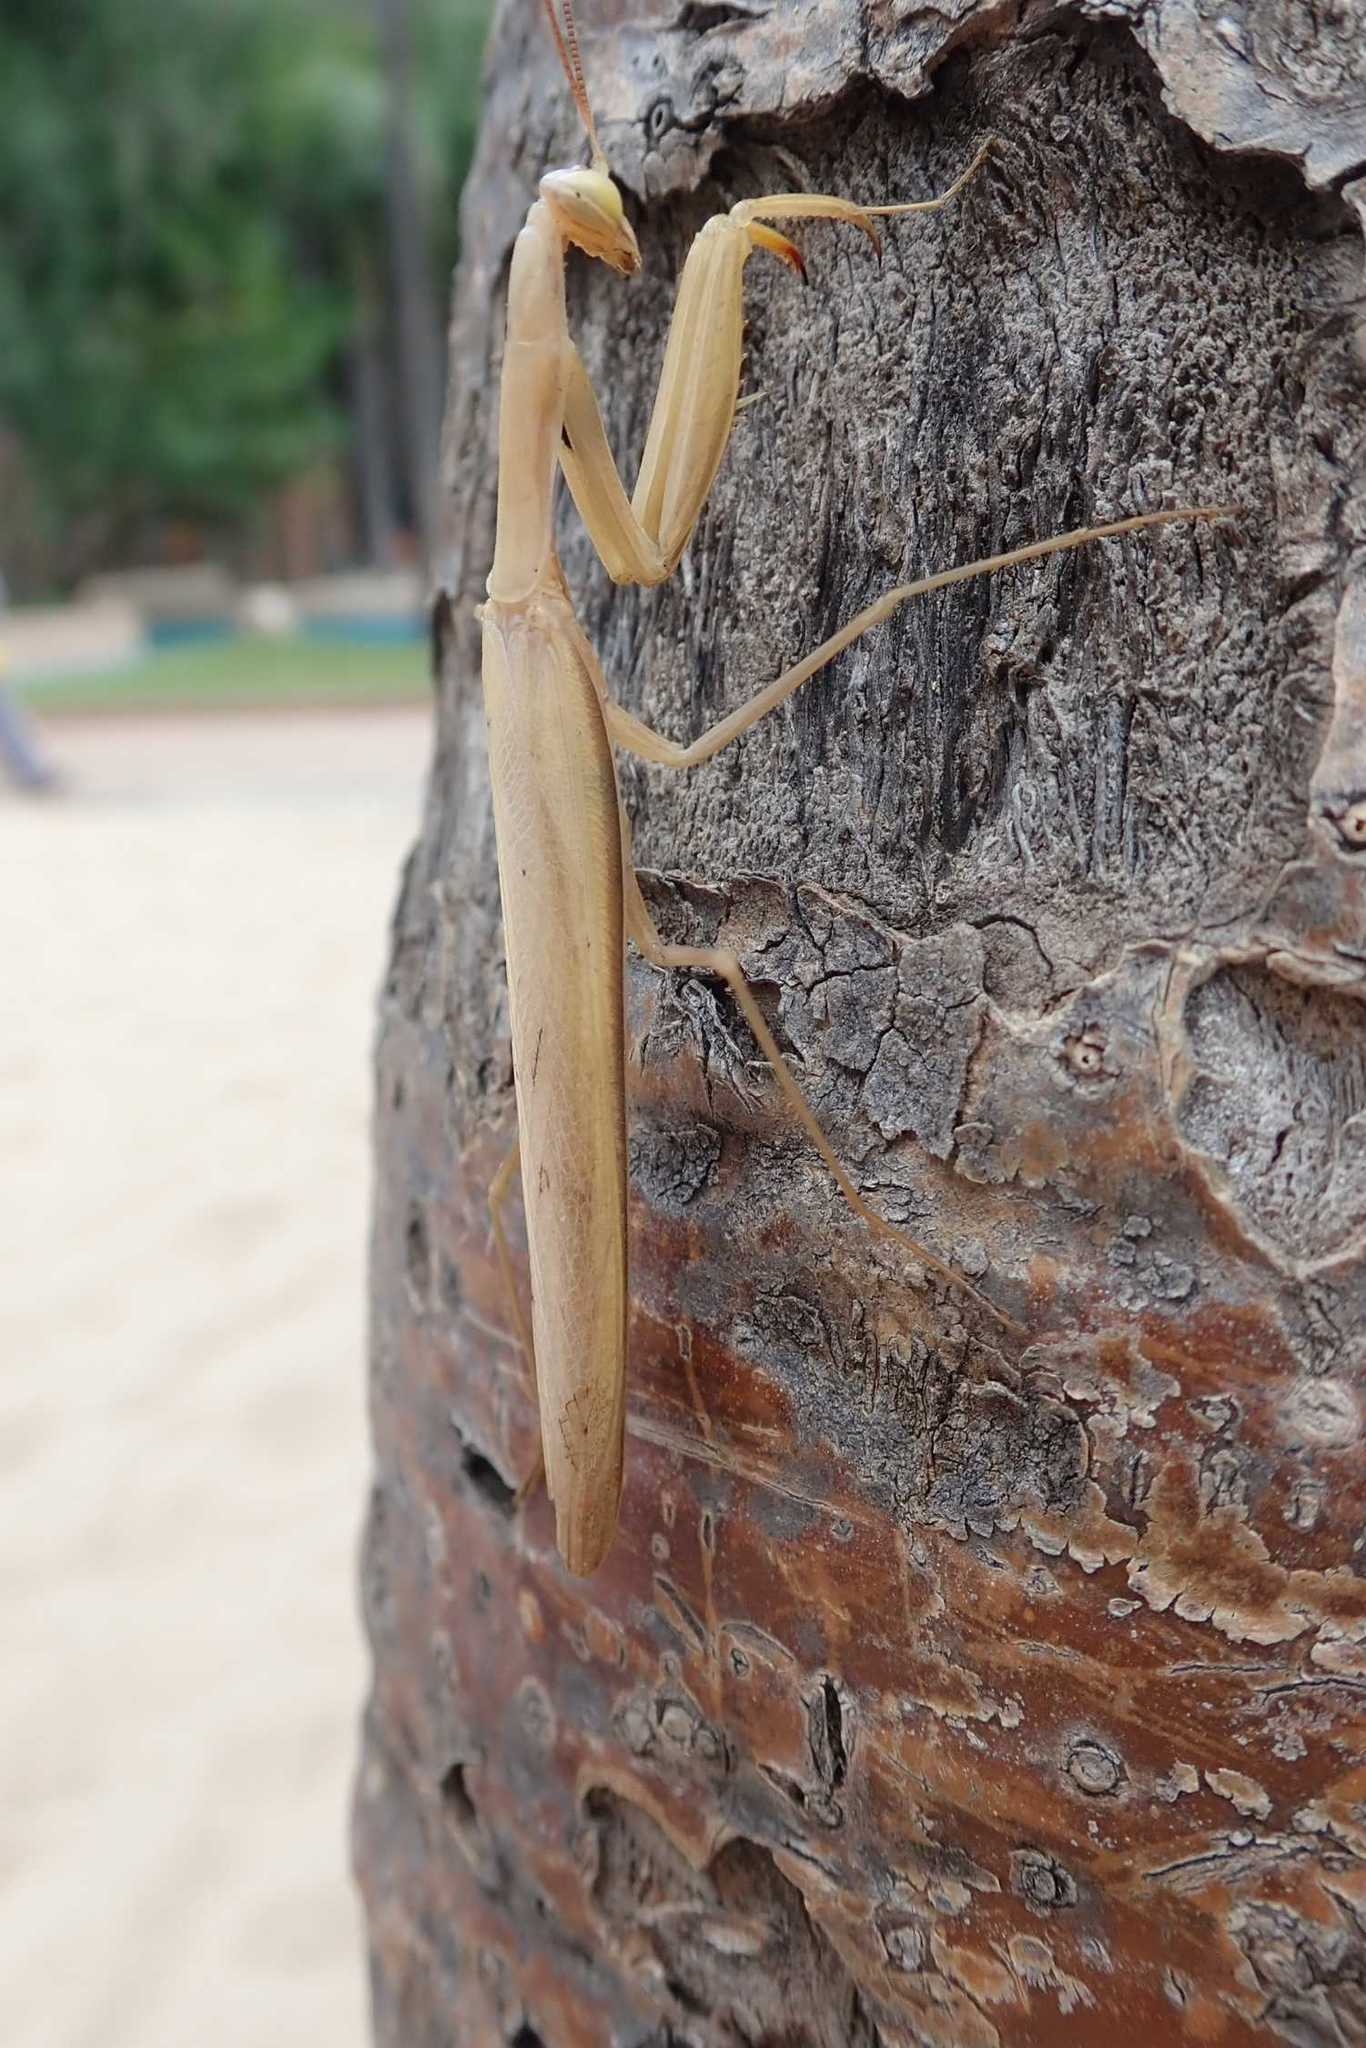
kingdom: Animalia
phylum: Arthropoda
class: Insecta
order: Mantodea
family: Mantidae
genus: Mantis
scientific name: Mantis religiosa
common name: Praying mantis
